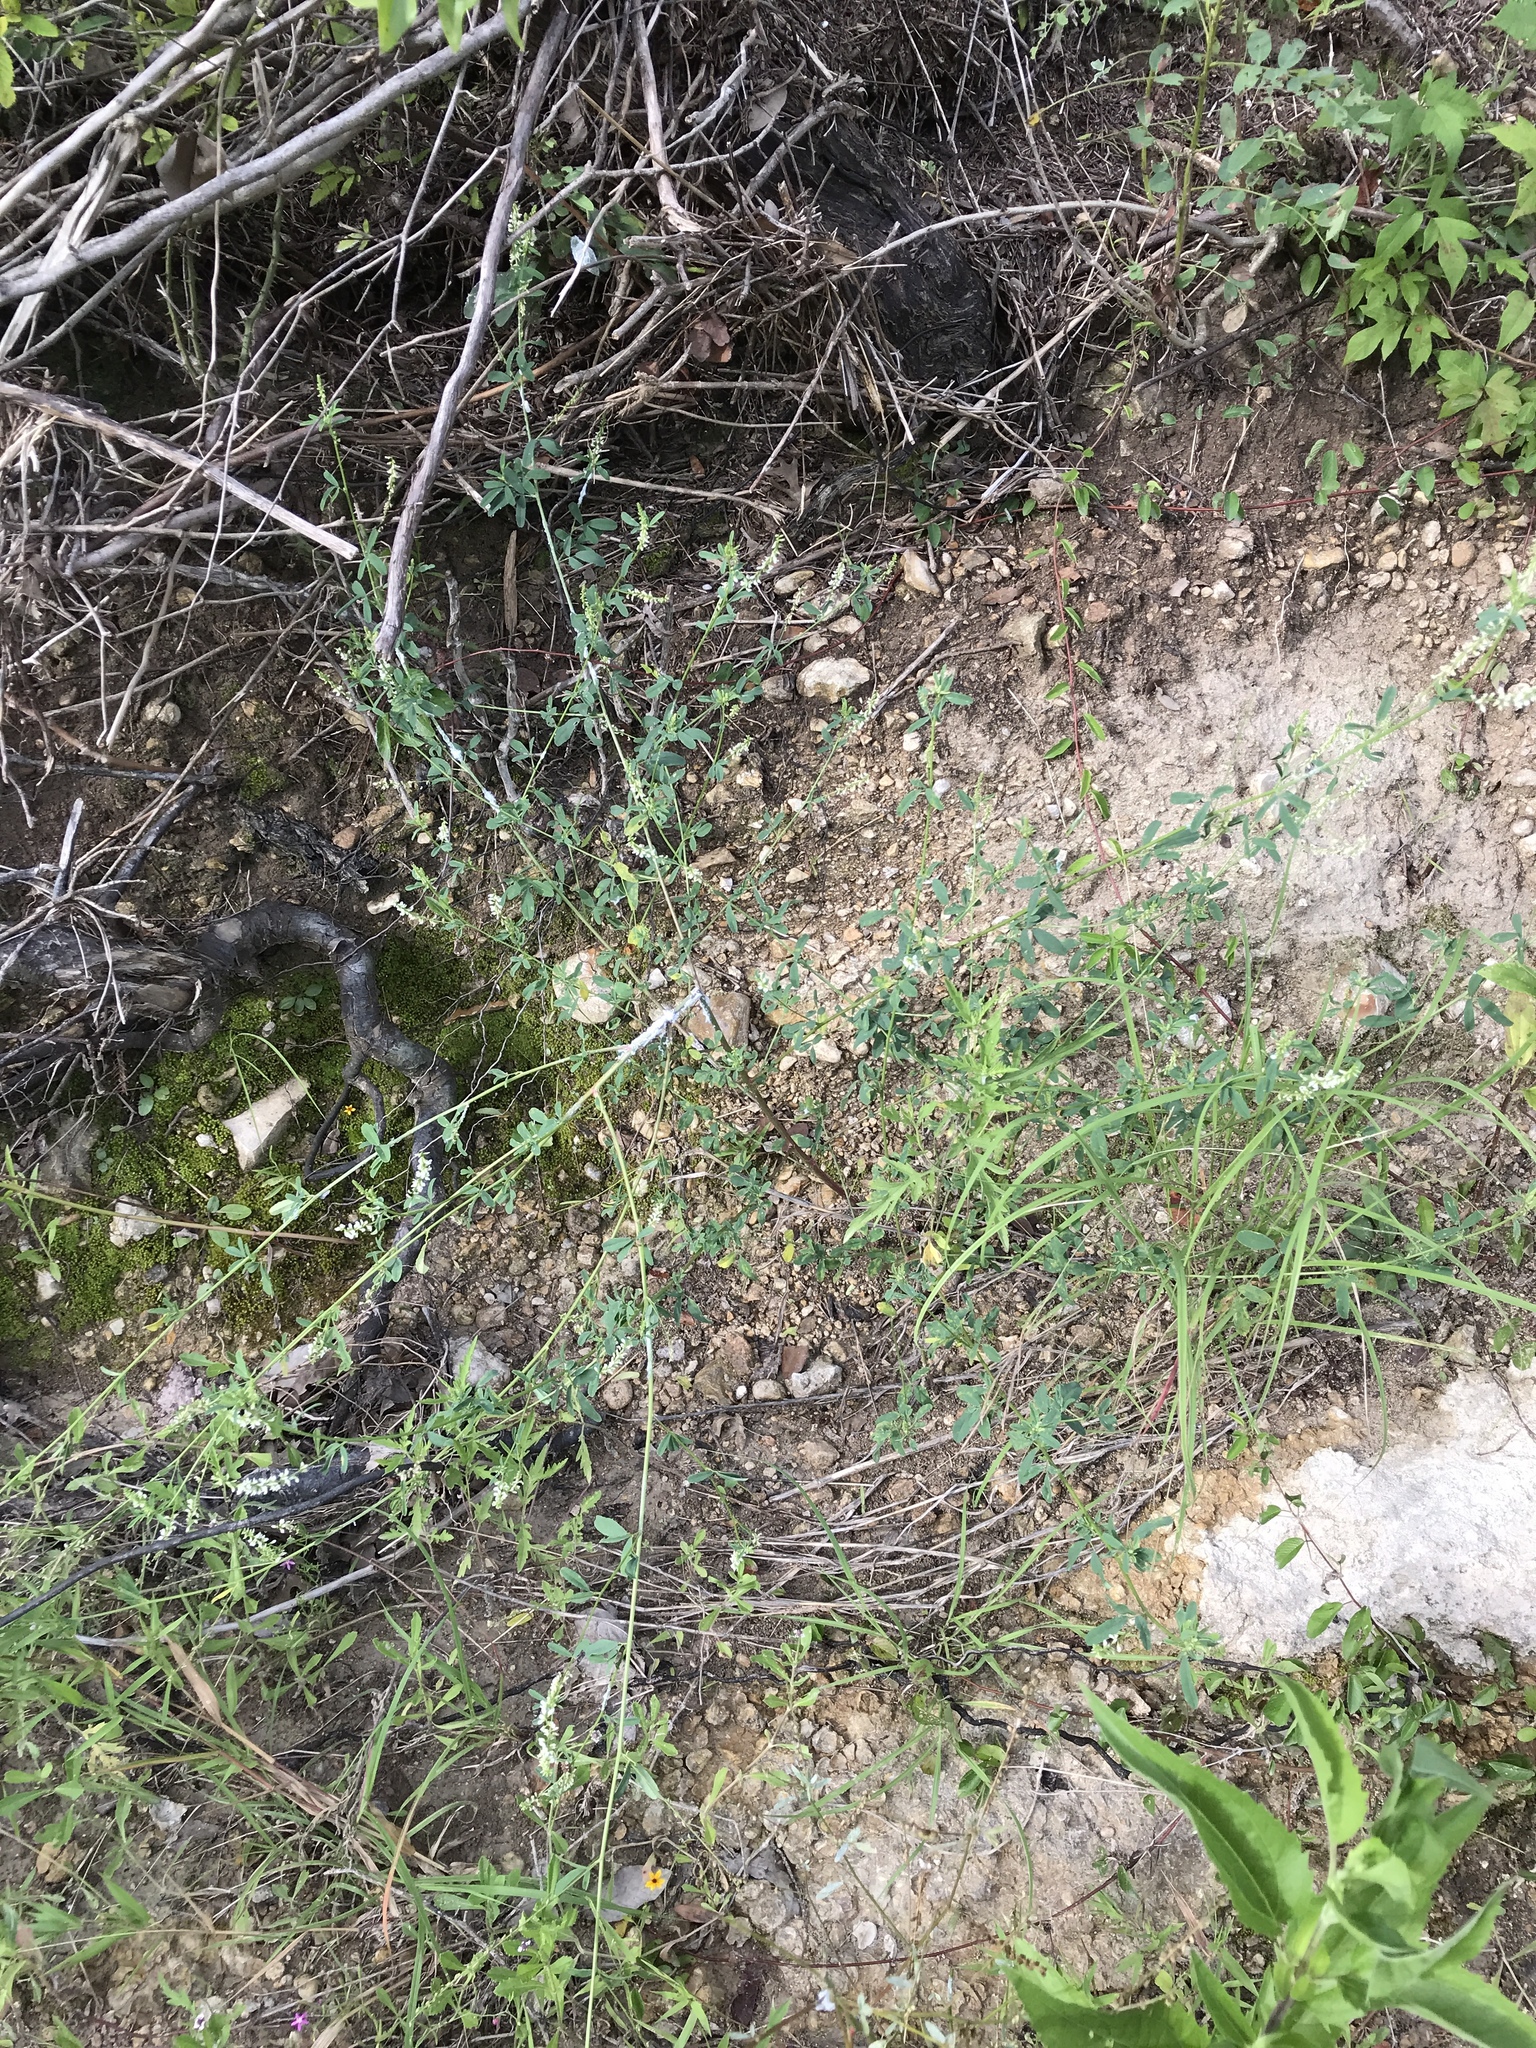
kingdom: Plantae
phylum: Tracheophyta
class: Magnoliopsida
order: Fabales
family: Fabaceae
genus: Melilotus
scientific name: Melilotus albus
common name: White melilot
